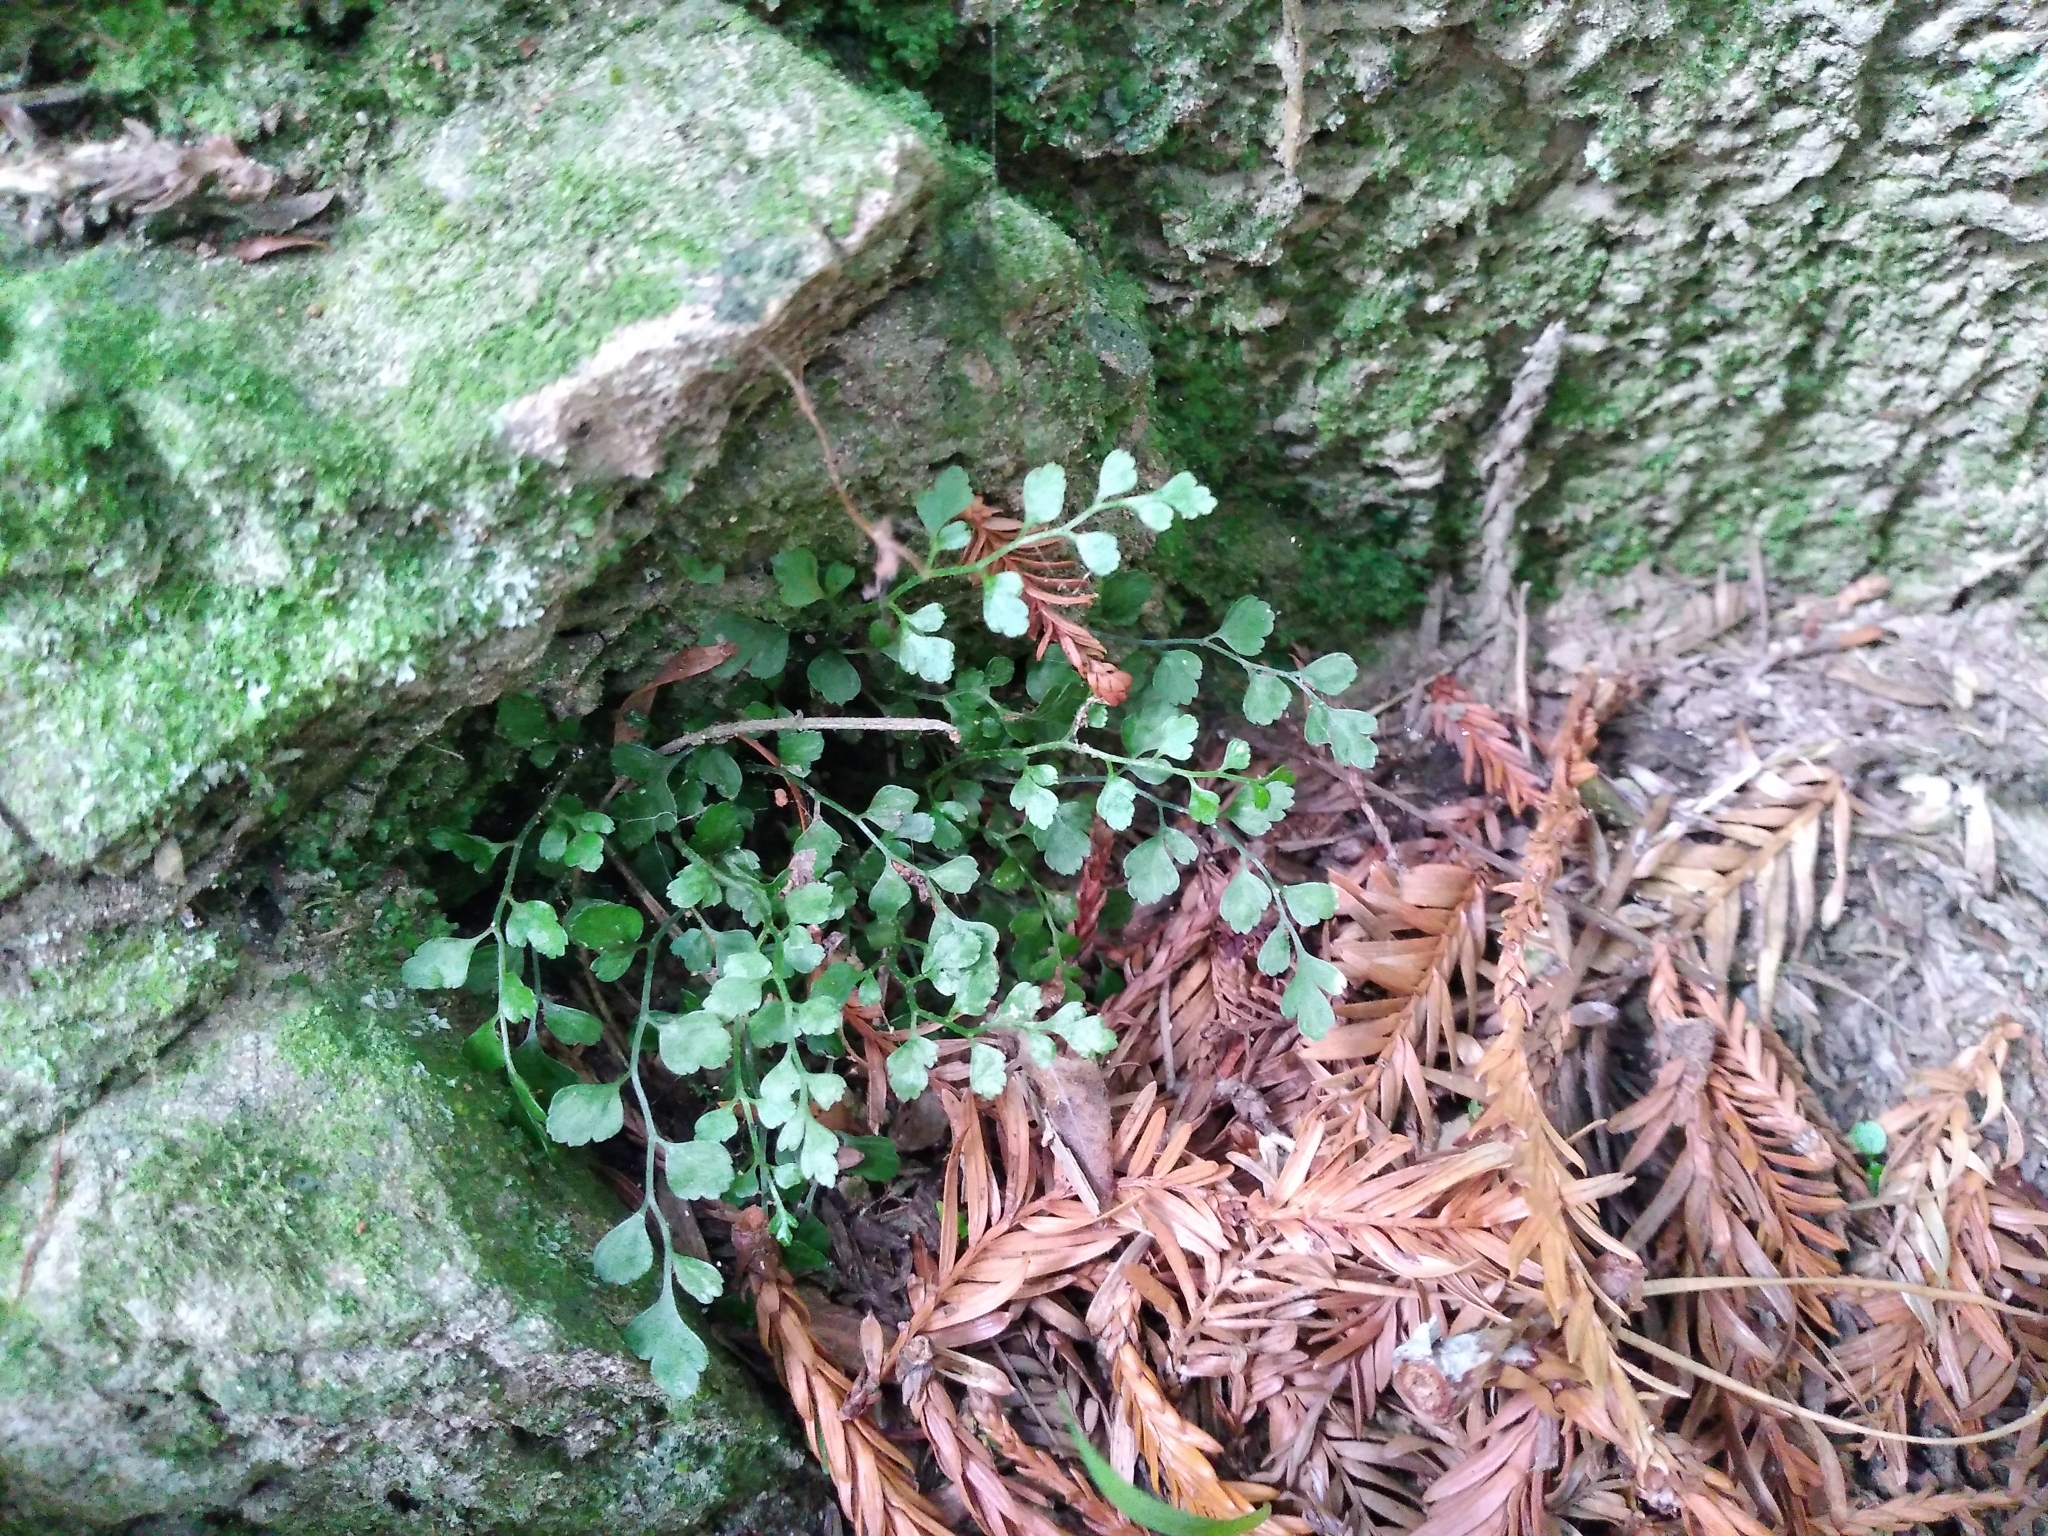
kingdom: Plantae
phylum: Tracheophyta
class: Polypodiopsida
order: Polypodiales
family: Aspleniaceae
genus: Asplenium
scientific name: Asplenium hookerianum
